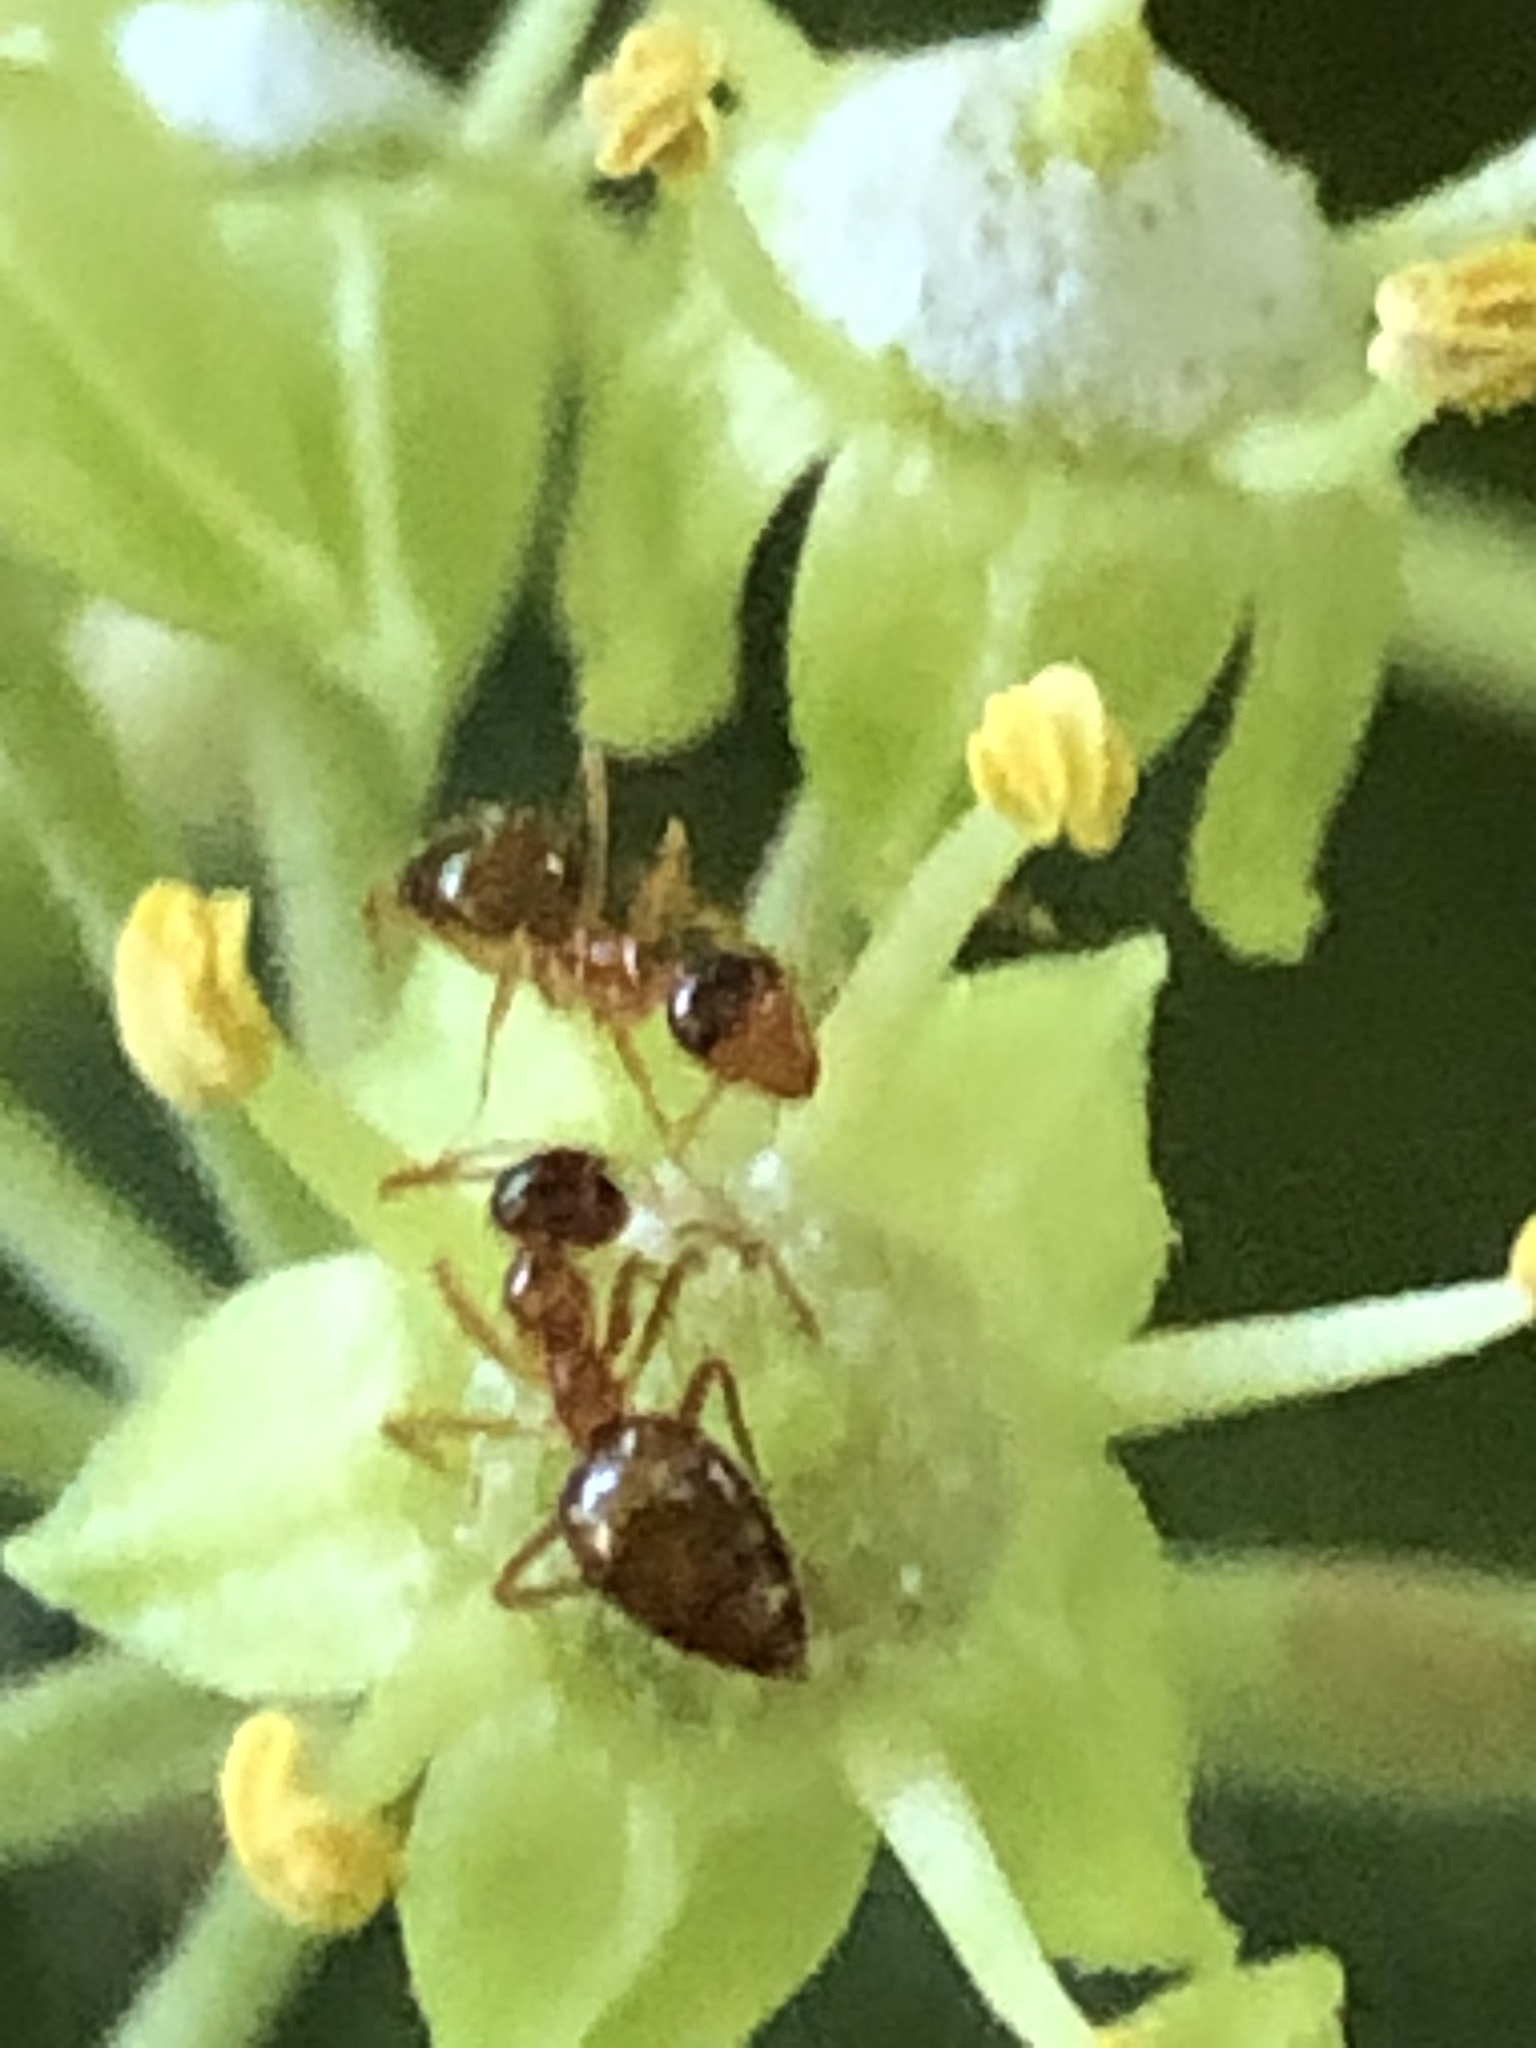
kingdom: Animalia
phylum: Arthropoda
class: Insecta
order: Hymenoptera
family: Formicidae
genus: Prenolepis
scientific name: Prenolepis imparis
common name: Small honey ant
